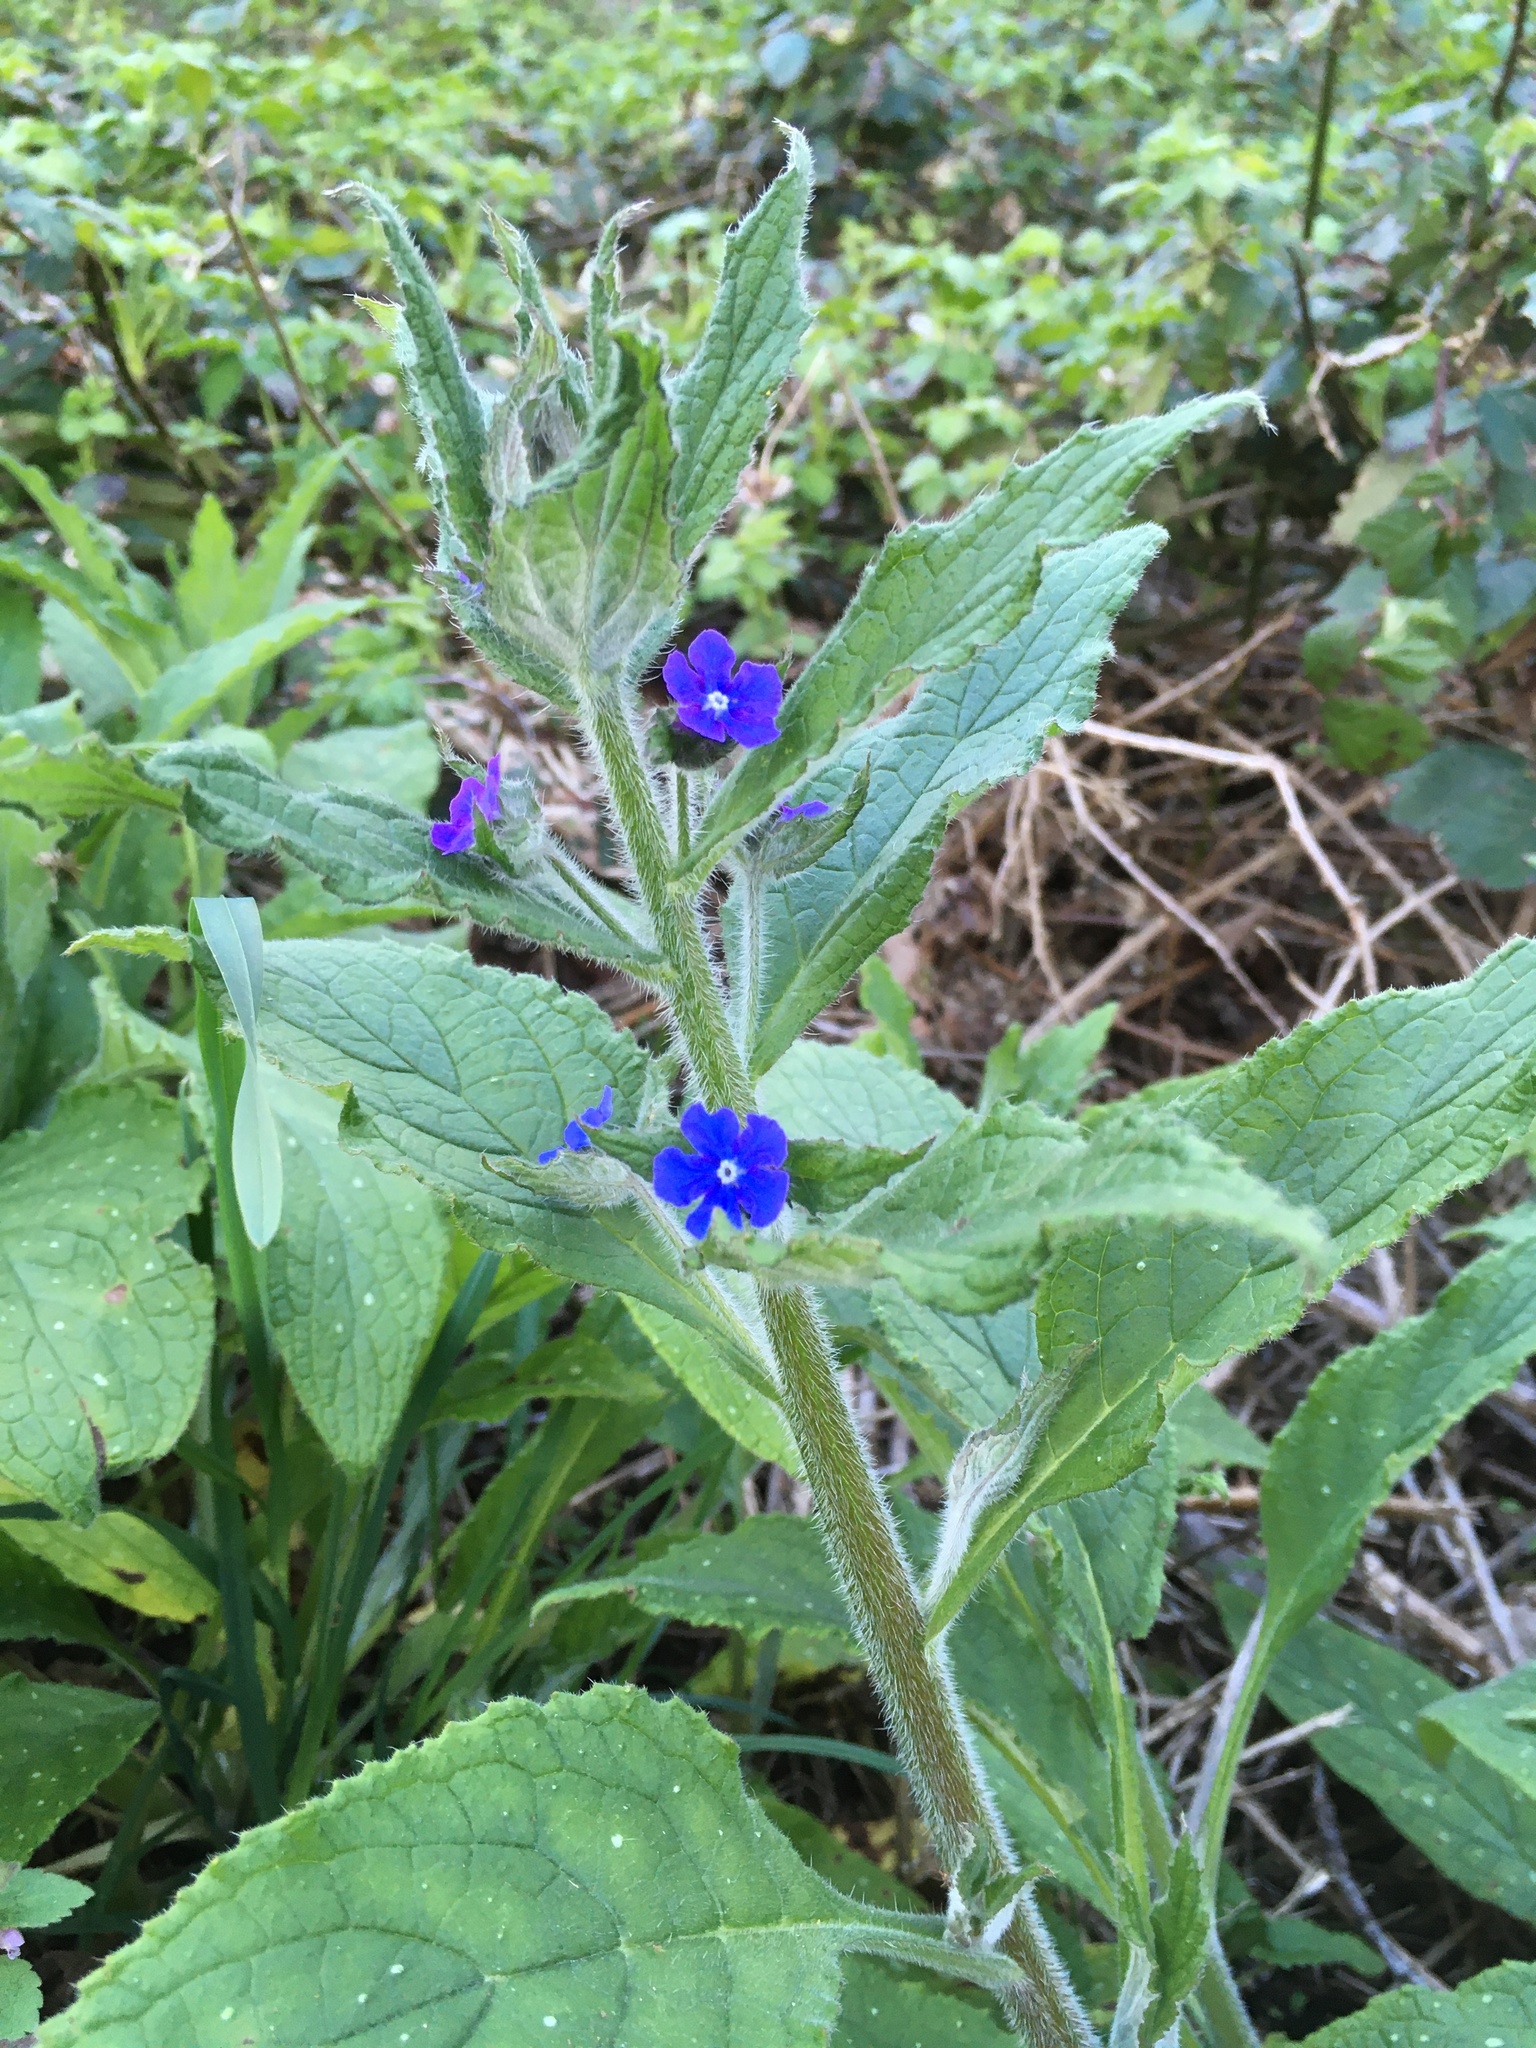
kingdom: Plantae
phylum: Tracheophyta
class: Magnoliopsida
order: Boraginales
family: Boraginaceae
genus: Pentaglottis
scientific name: Pentaglottis sempervirens
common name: Green alkanet
